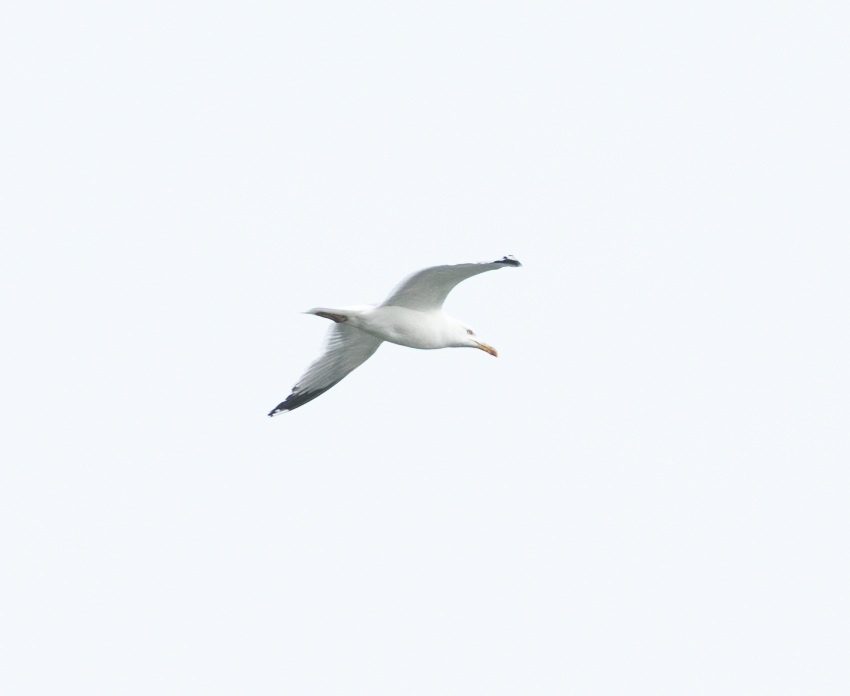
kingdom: Animalia
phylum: Chordata
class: Aves
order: Charadriiformes
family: Laridae
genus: Larus
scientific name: Larus michahellis
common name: Yellow-legged gull
